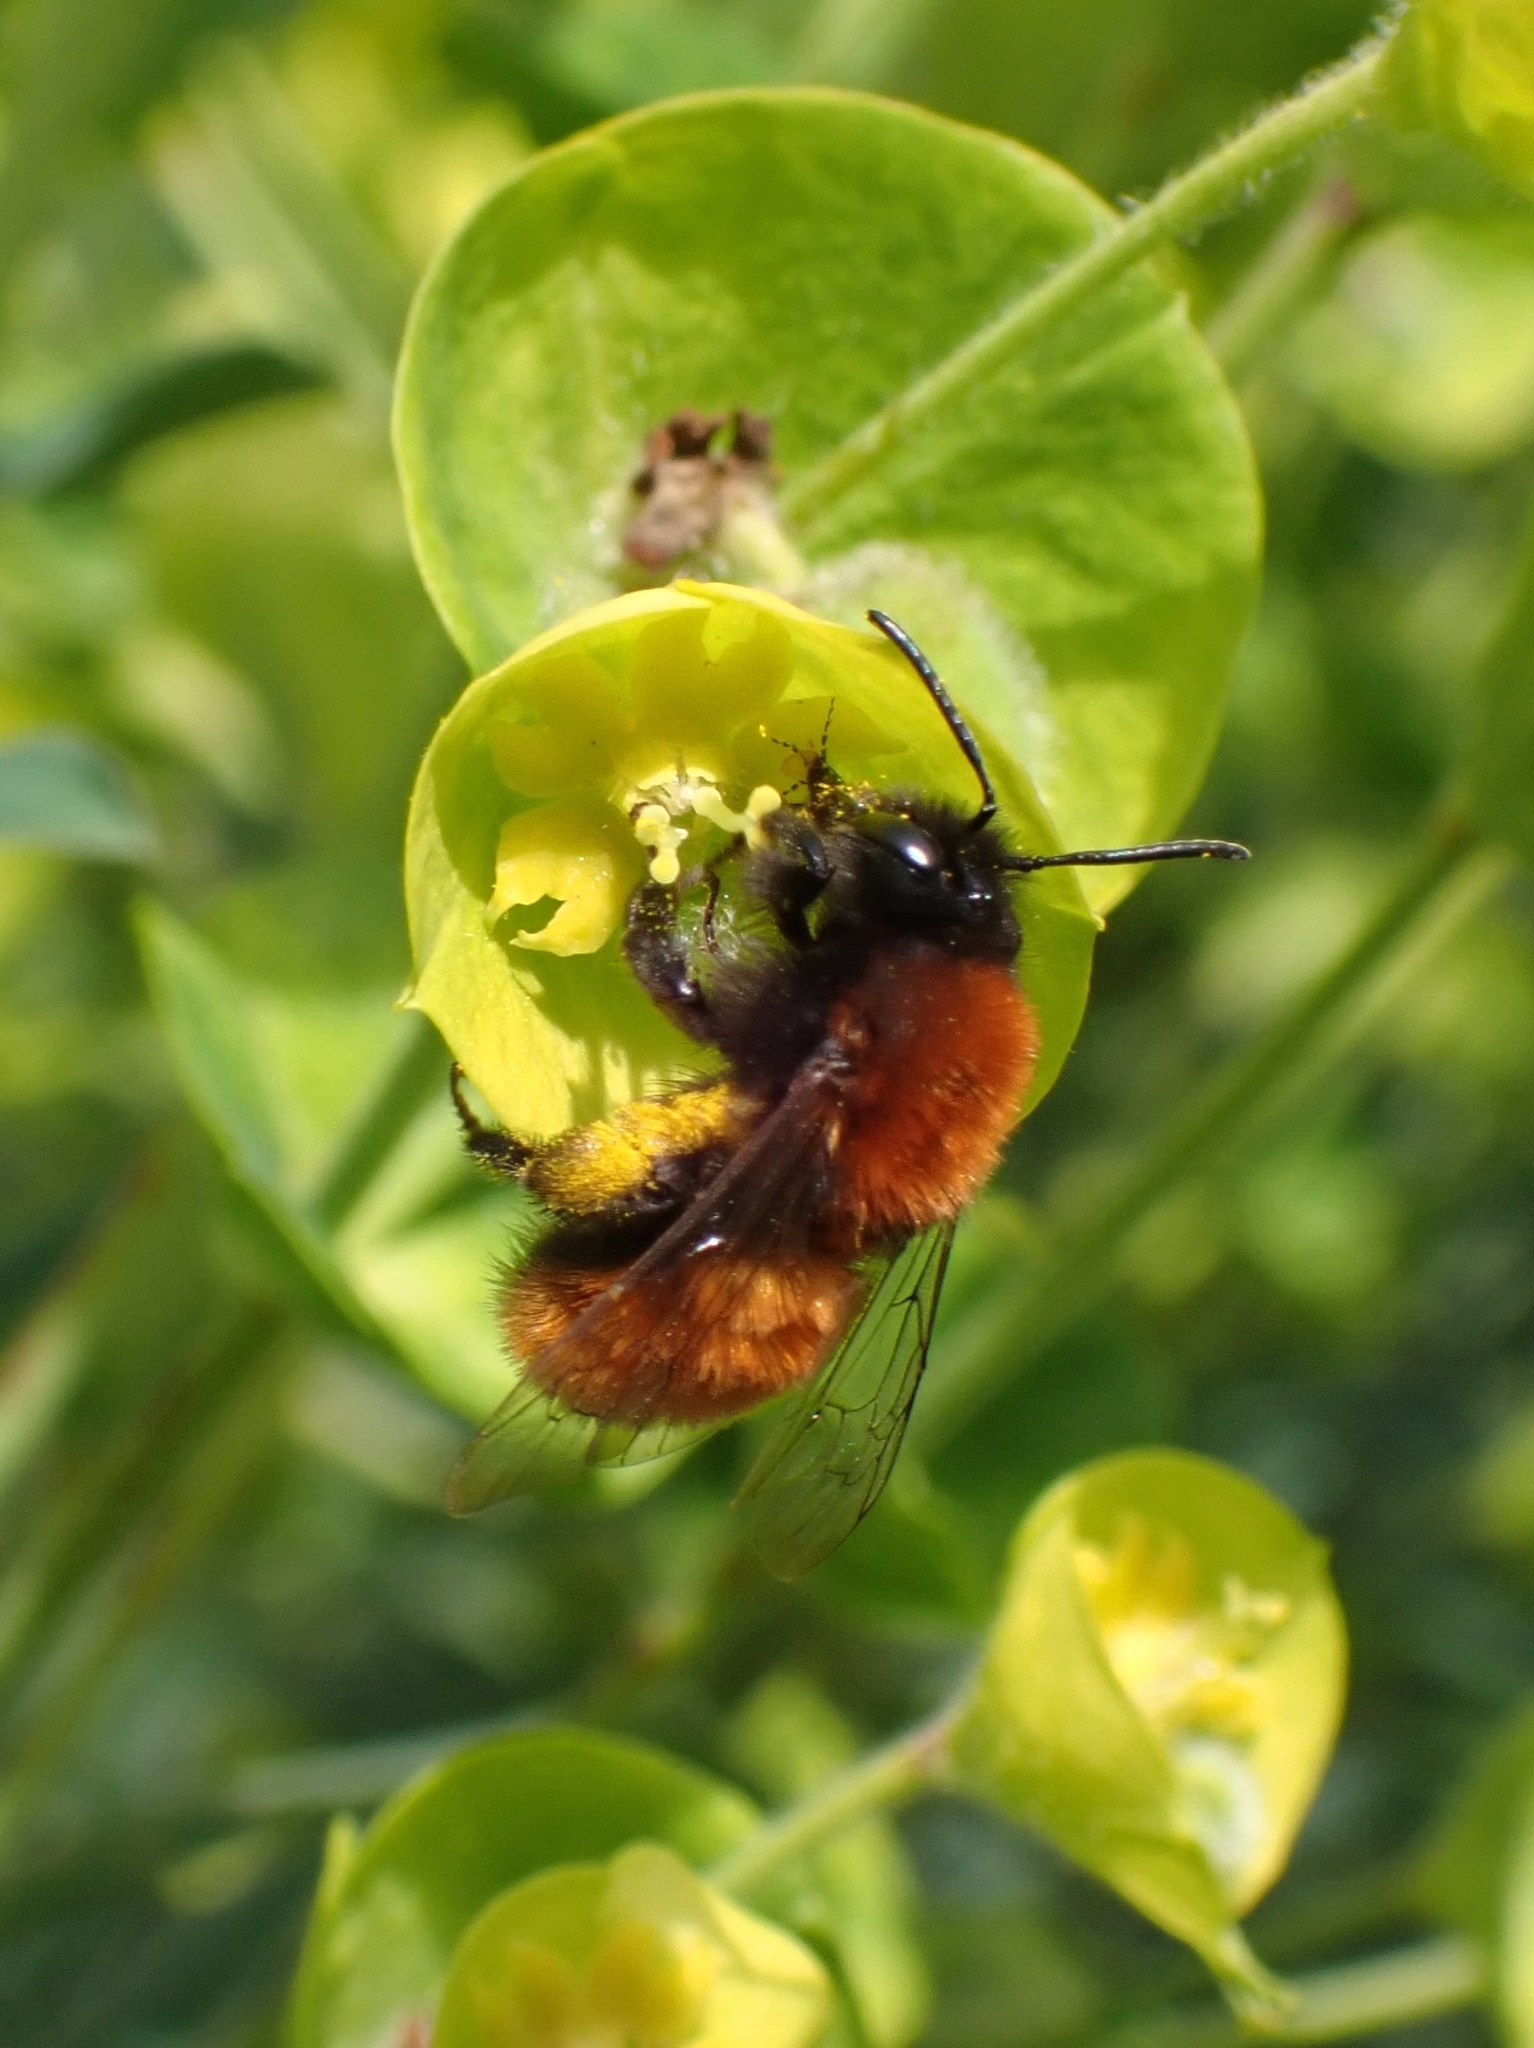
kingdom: Animalia
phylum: Arthropoda
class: Insecta
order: Hymenoptera
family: Andrenidae
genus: Andrena
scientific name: Andrena fulva
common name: Tawny mining bee
